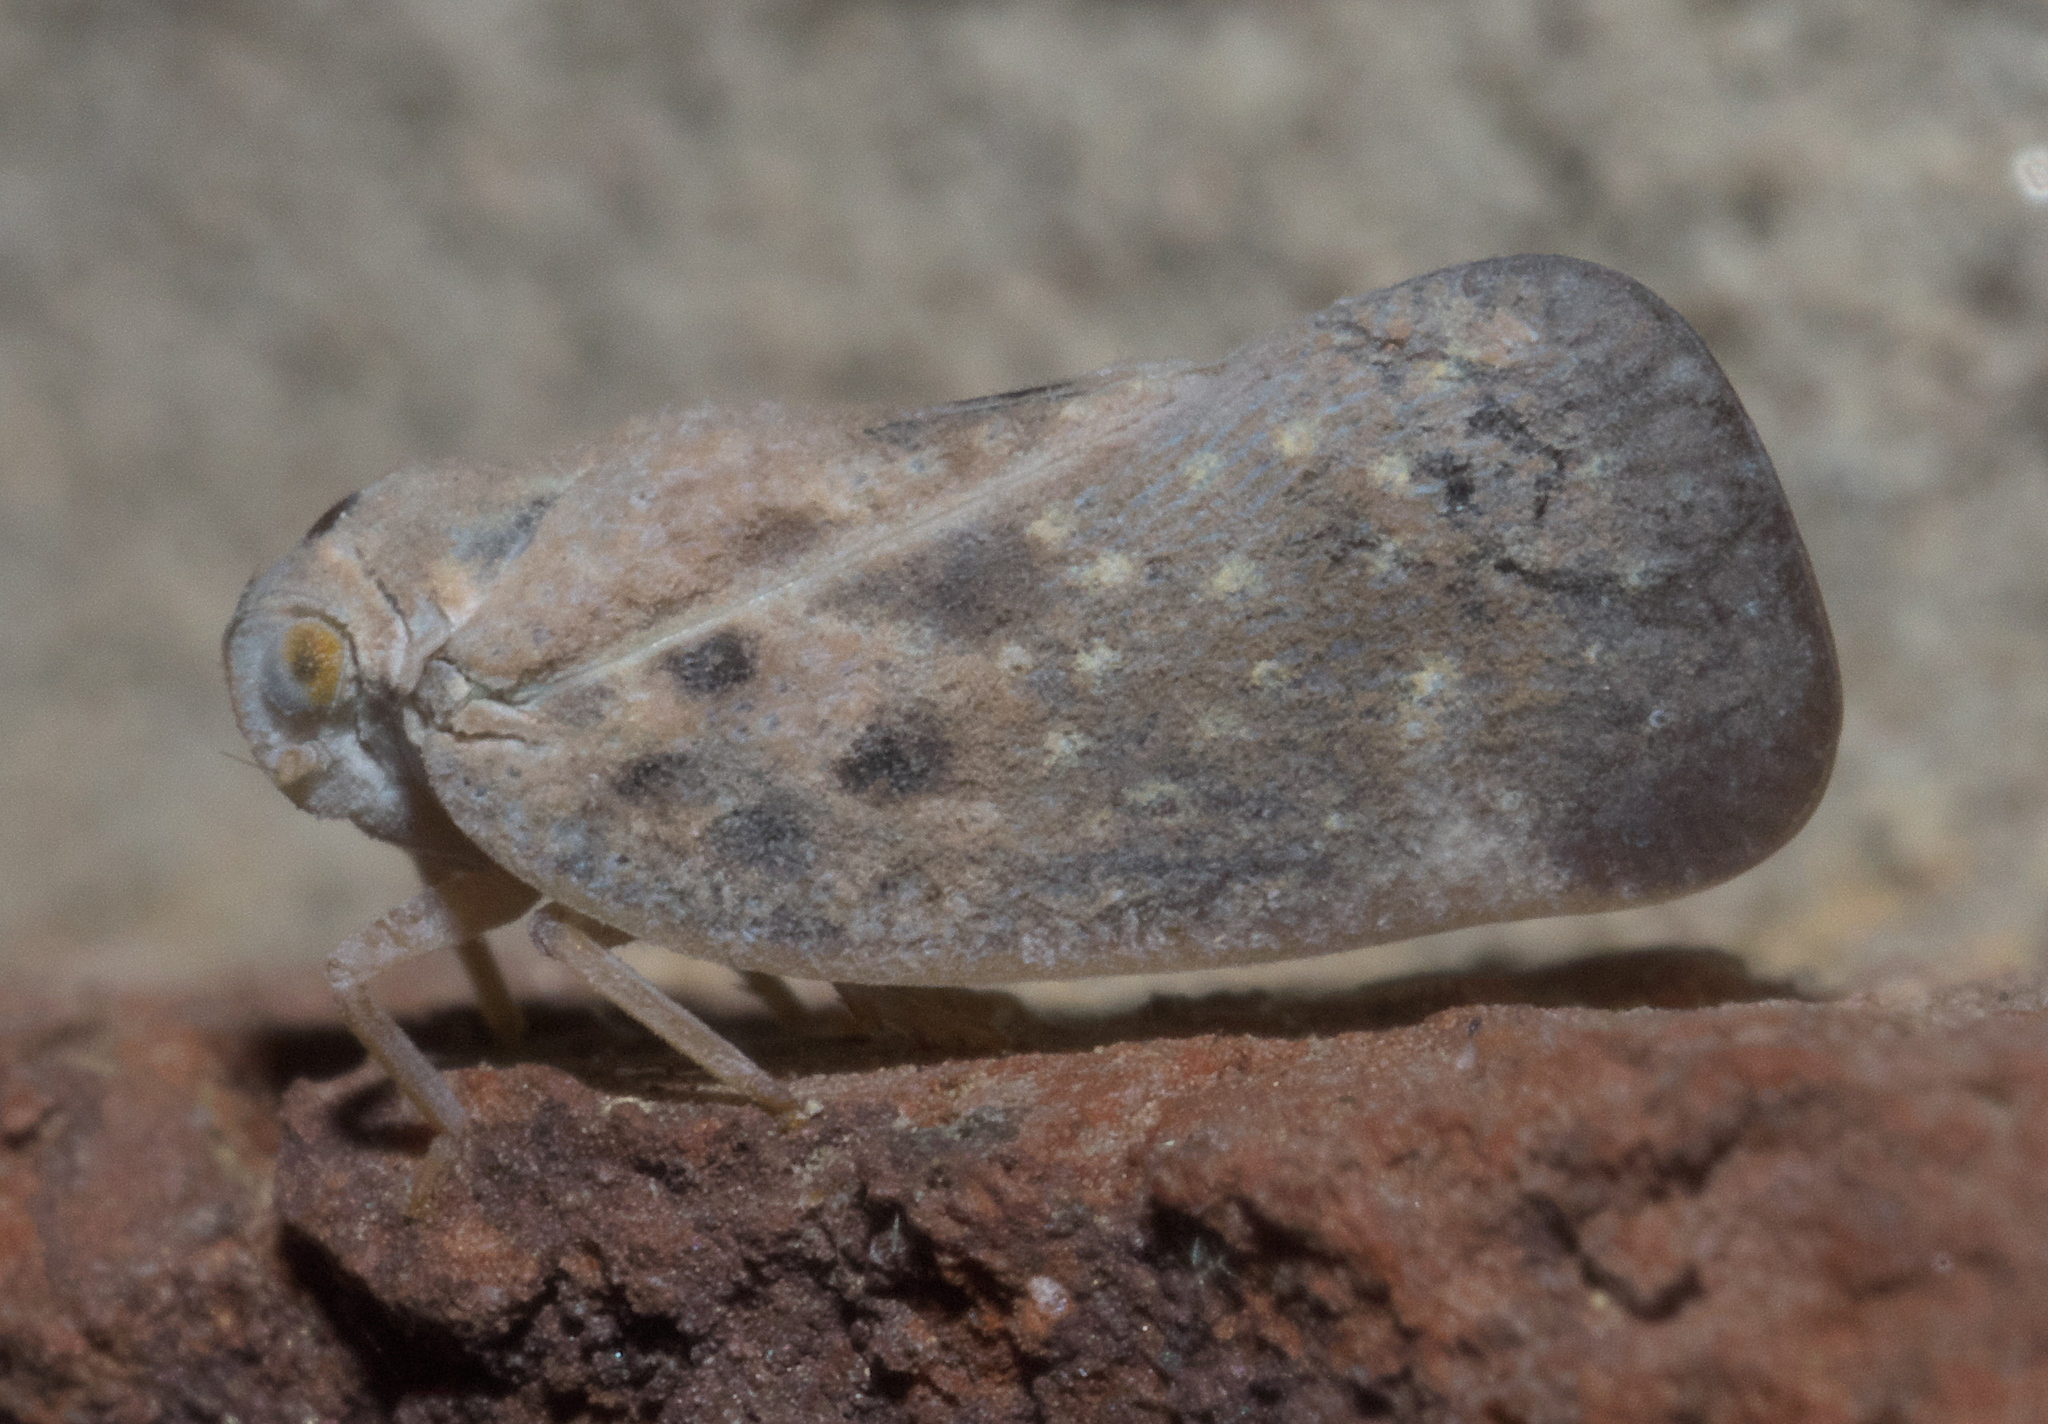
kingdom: Animalia
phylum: Arthropoda
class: Insecta
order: Hemiptera
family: Flatidae
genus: Metcalfa
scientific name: Metcalfa pruinosa
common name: Citrus flatid planthopper
